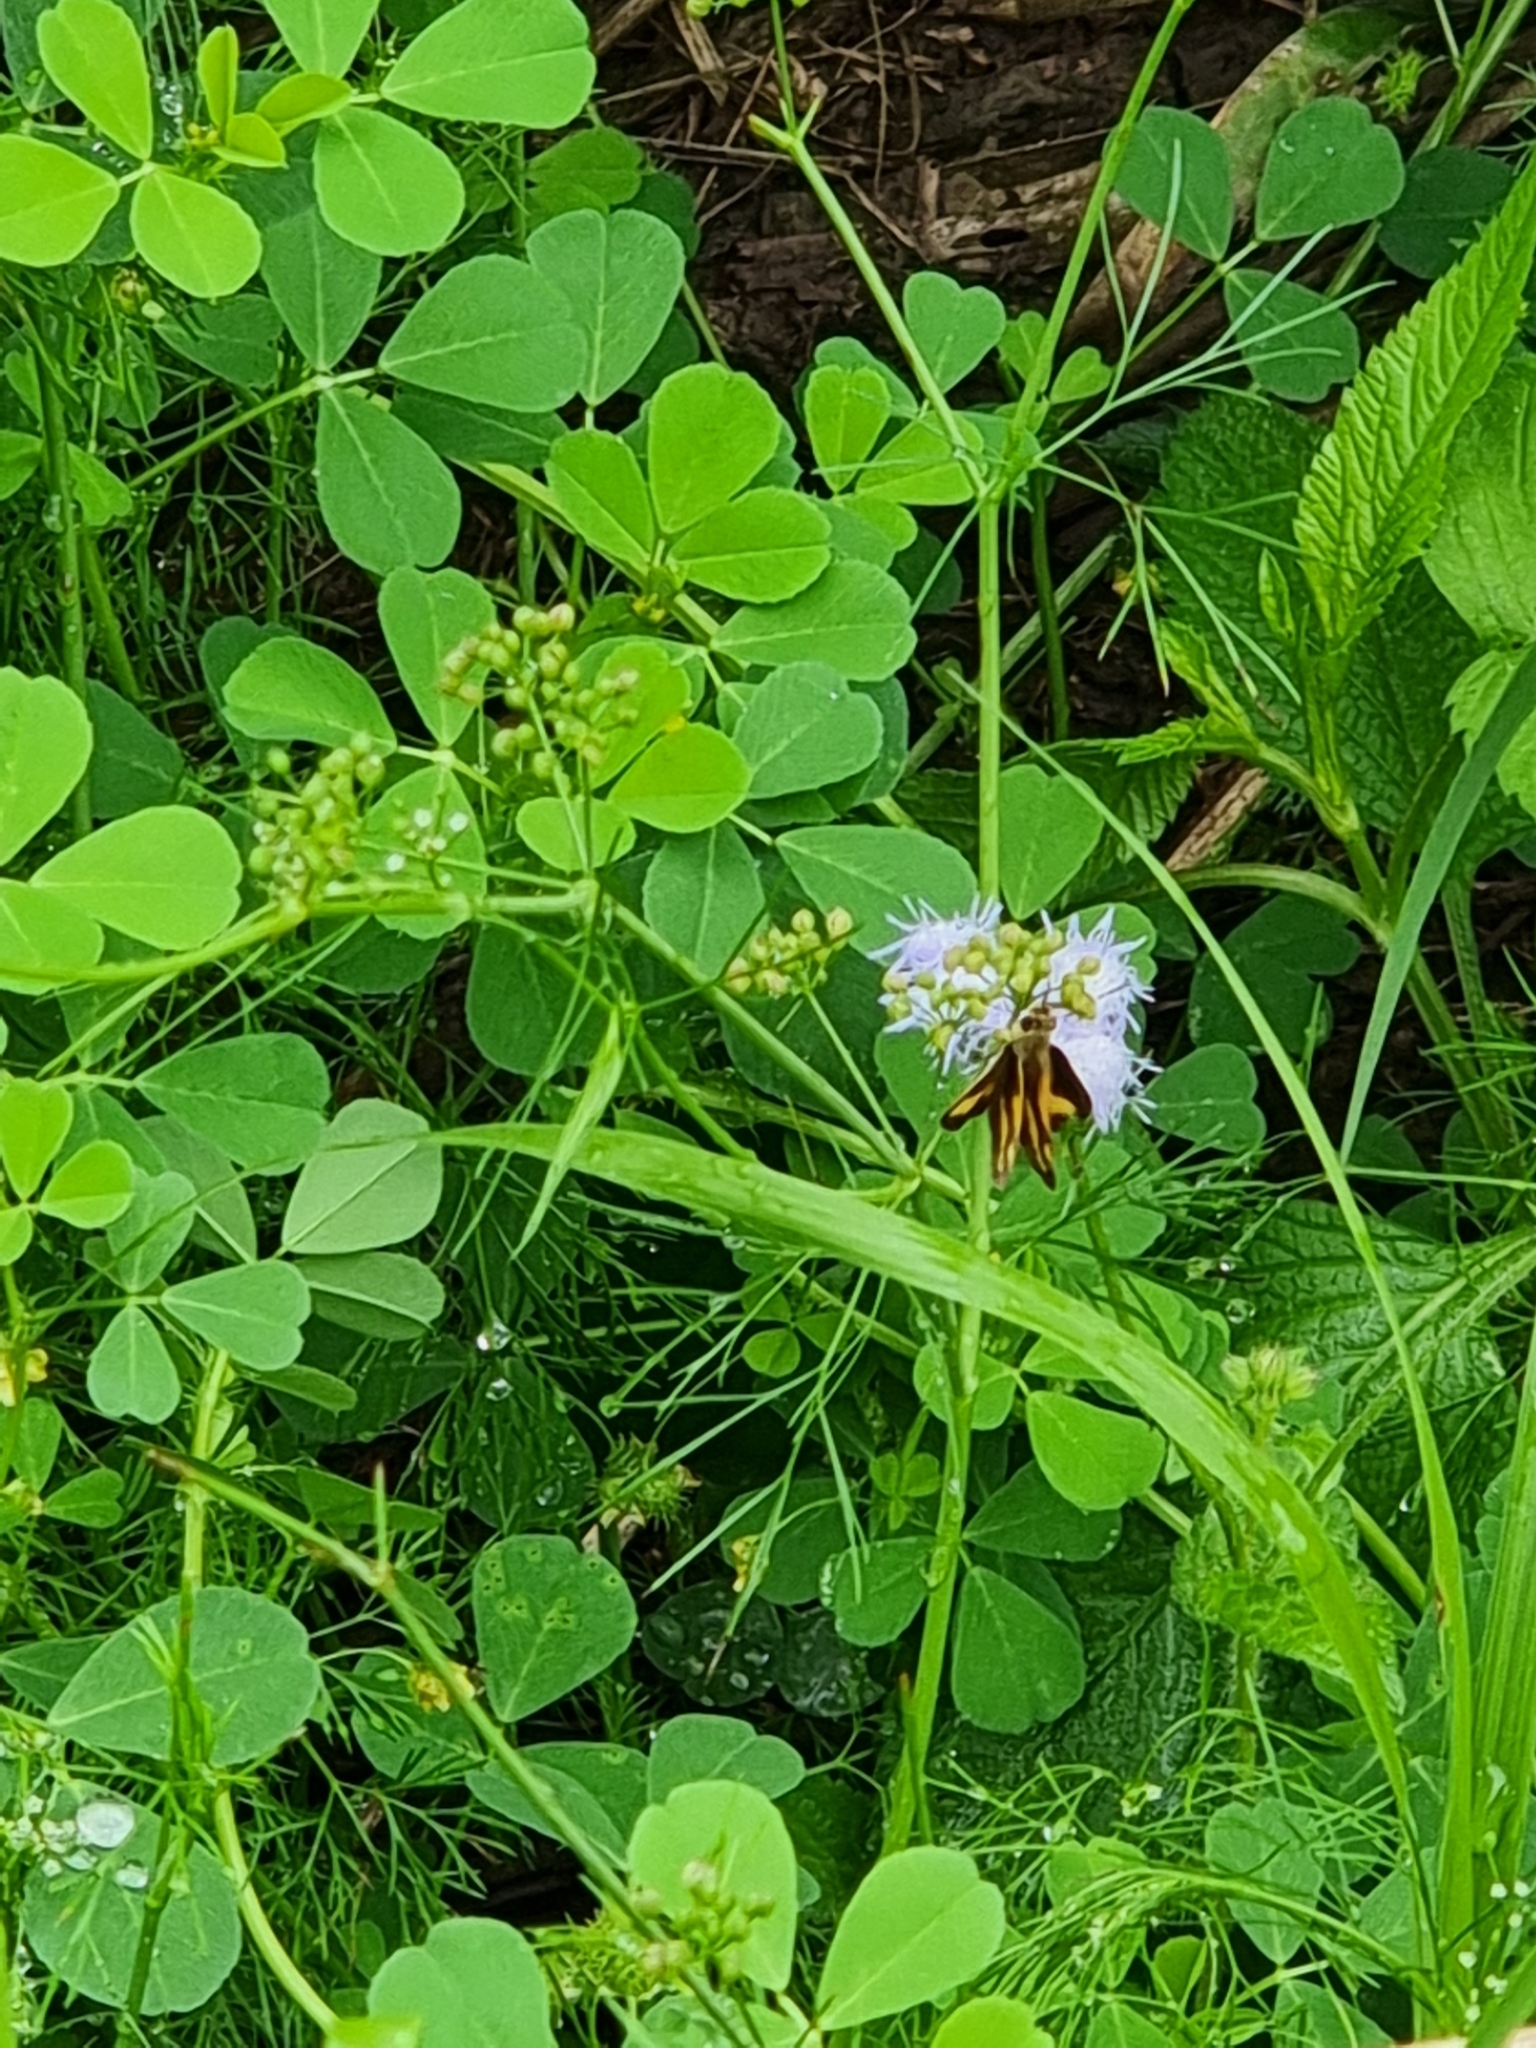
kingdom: Animalia
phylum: Arthropoda
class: Insecta
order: Lepidoptera
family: Hesperiidae
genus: Ocybadistes
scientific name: Ocybadistes walkeri
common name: Yellow-banded dart
